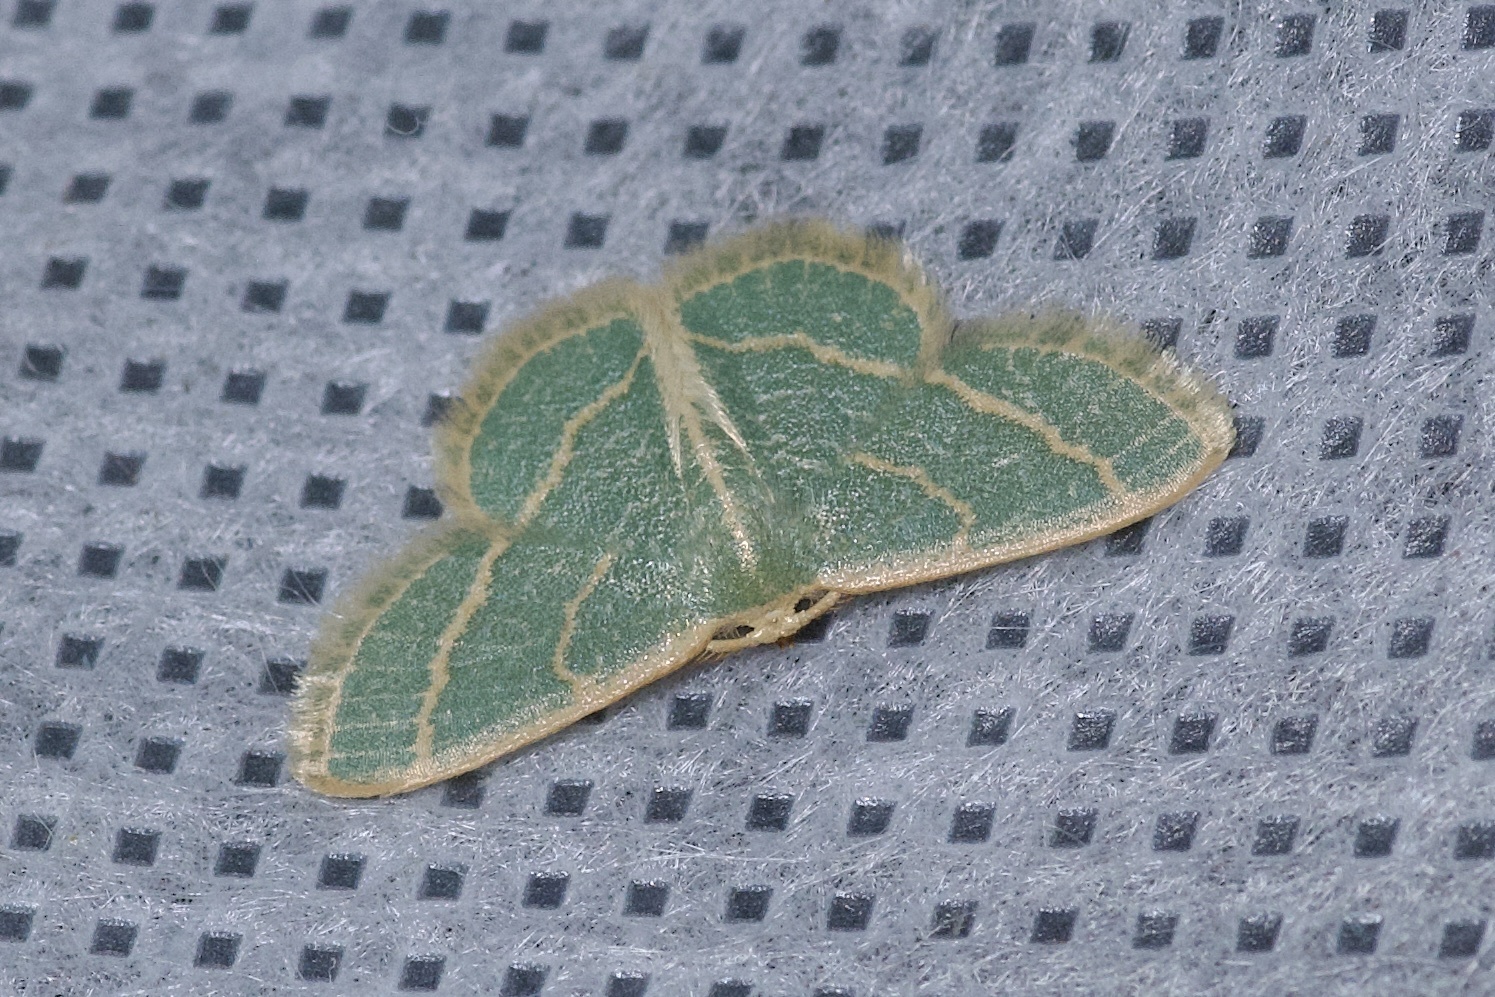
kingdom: Animalia
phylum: Arthropoda
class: Insecta
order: Lepidoptera
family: Geometridae
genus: Chlorochlamys
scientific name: Chlorochlamys chloroleucaria
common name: Blackberry looper
